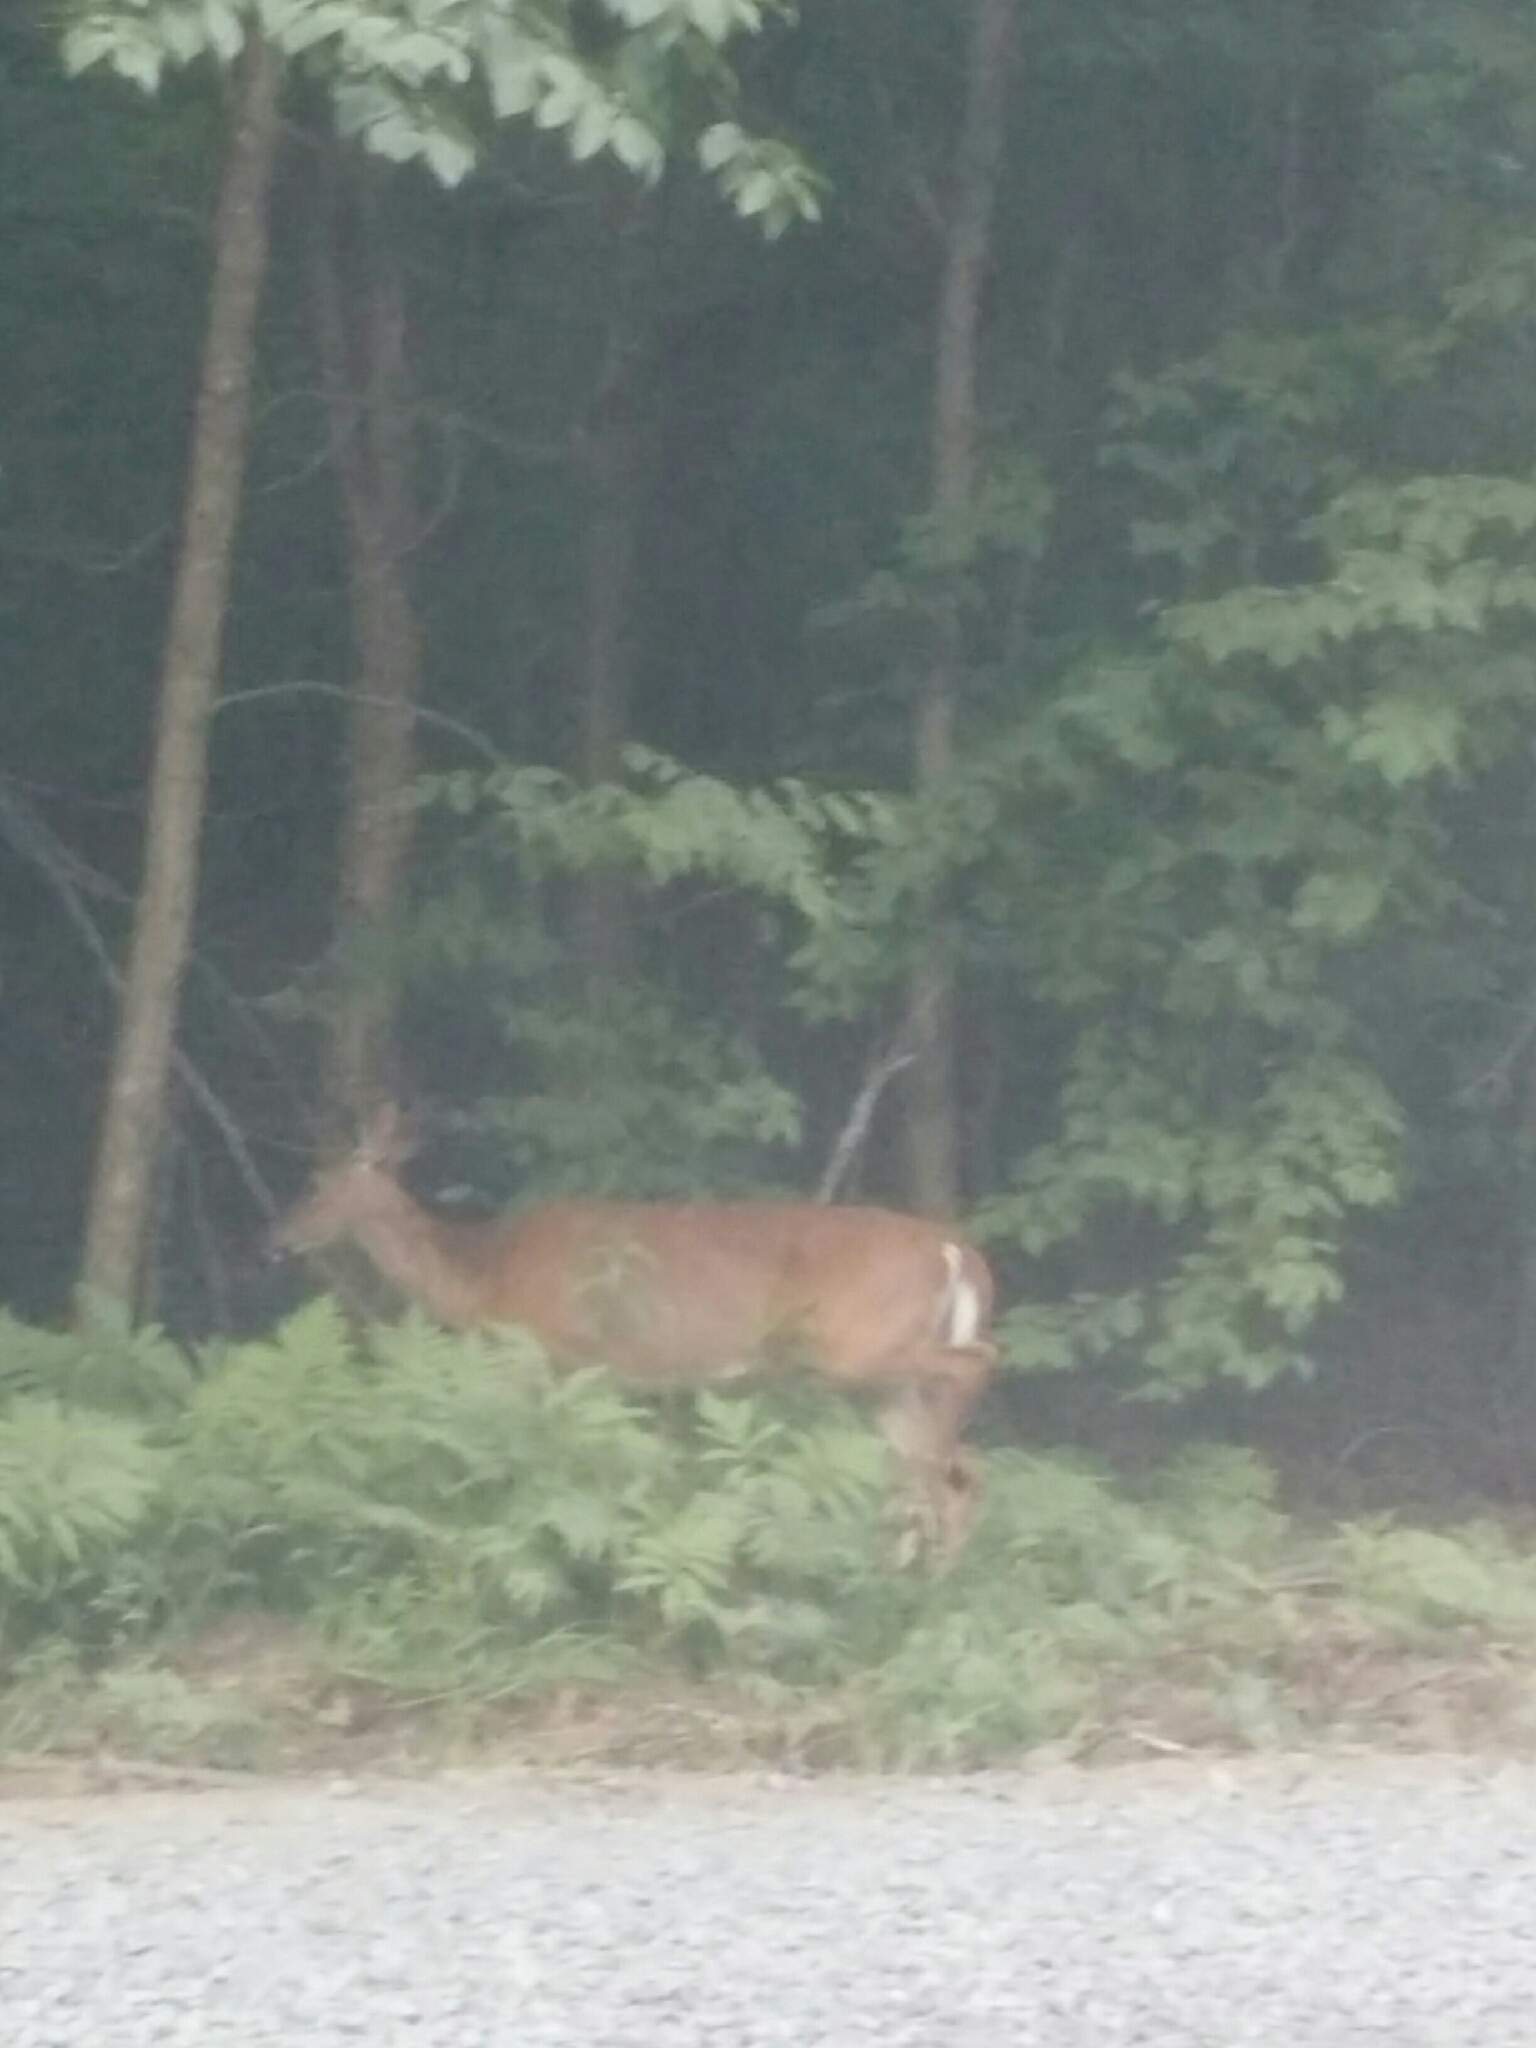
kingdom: Animalia
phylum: Chordata
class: Mammalia
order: Artiodactyla
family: Cervidae
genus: Odocoileus
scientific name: Odocoileus virginianus
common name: White-tailed deer
